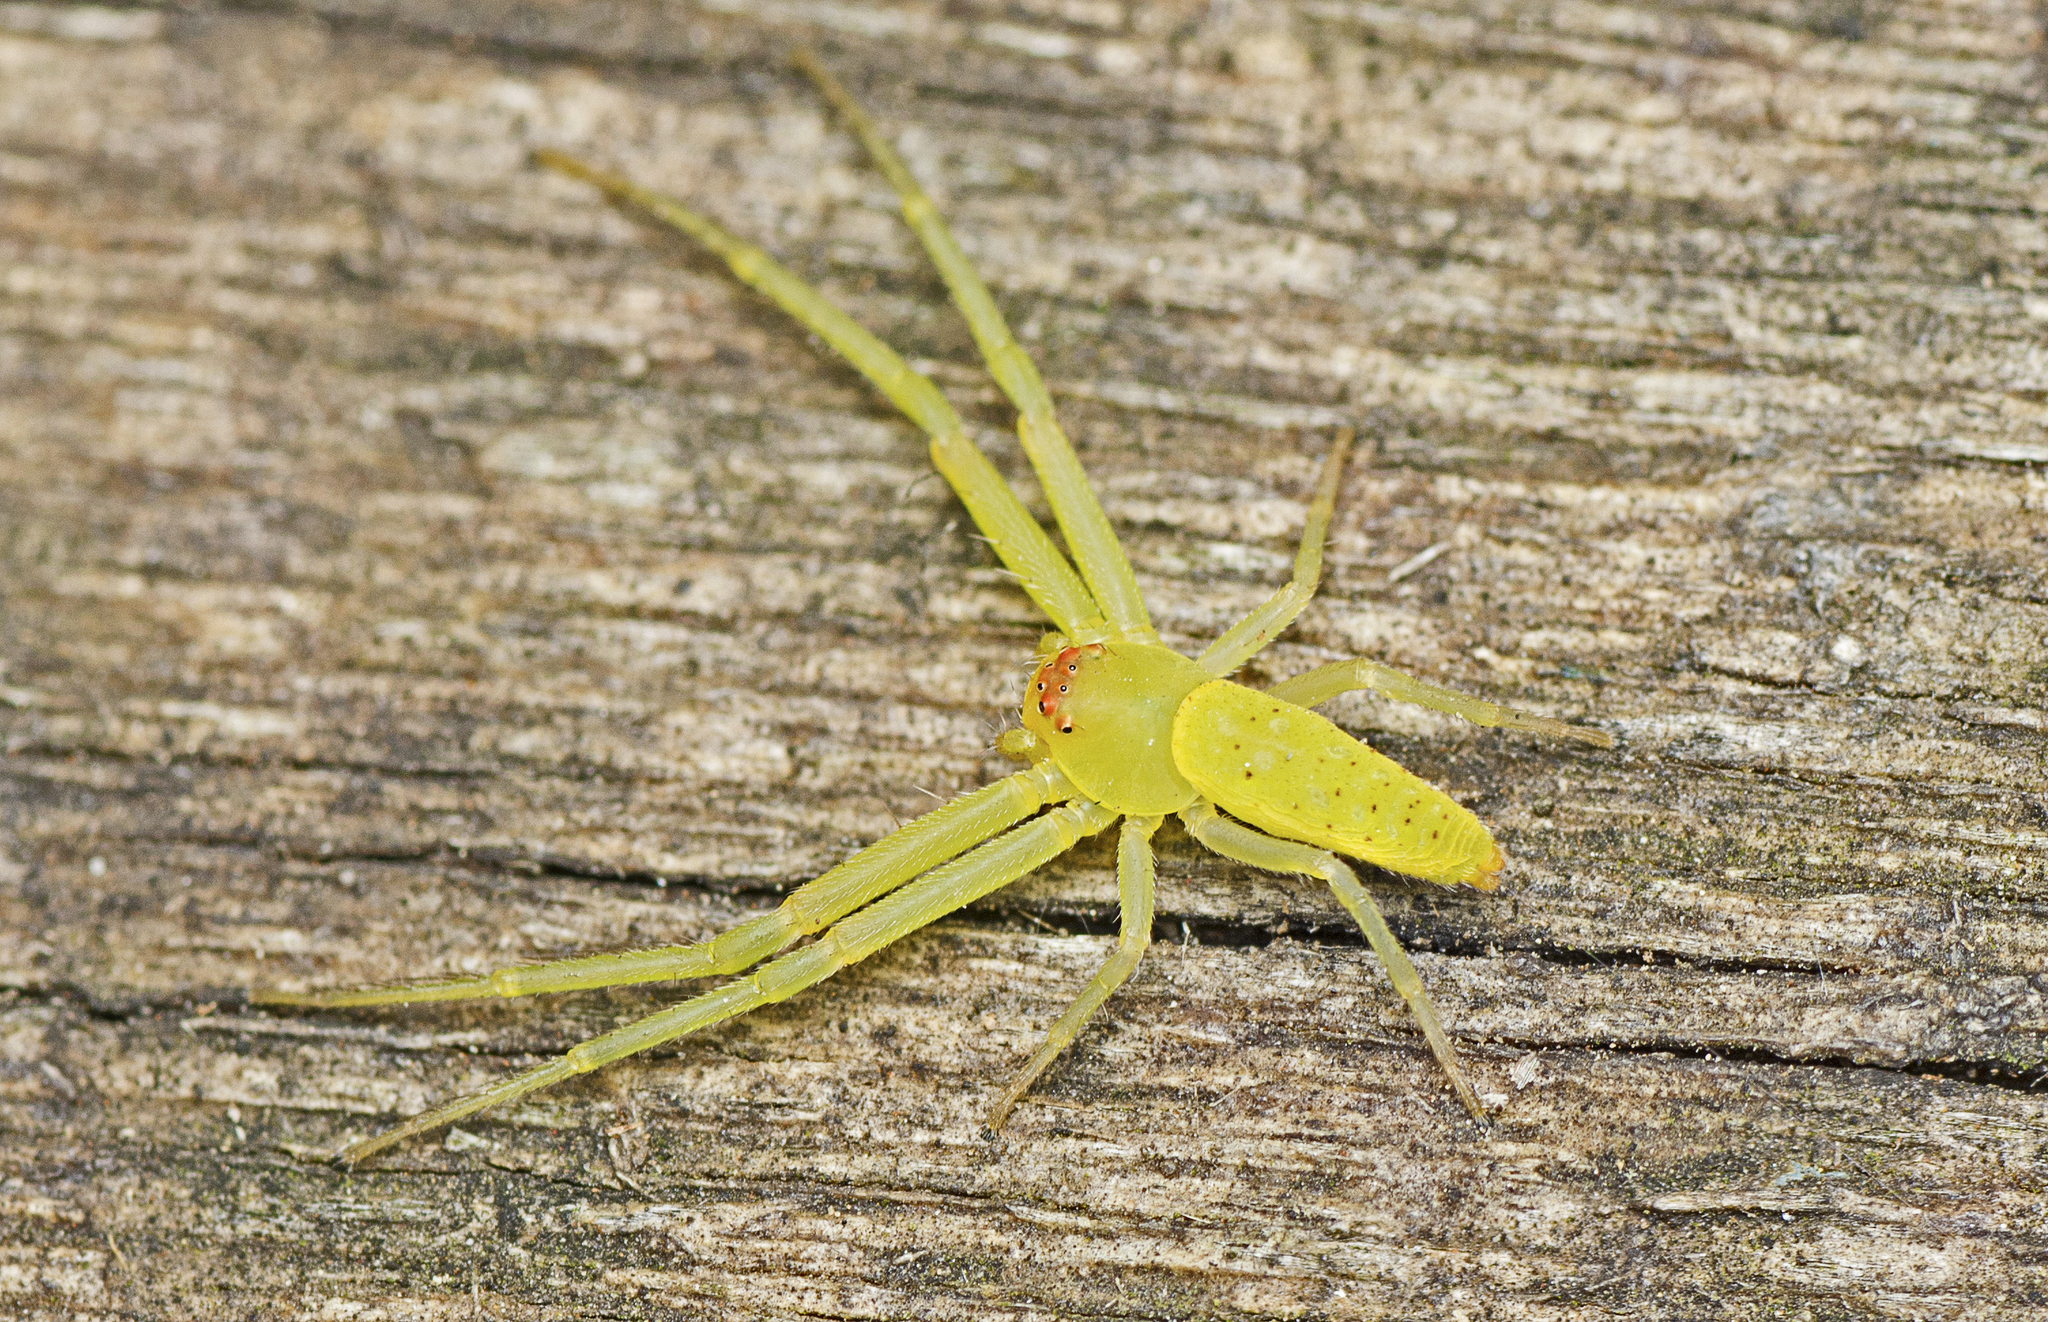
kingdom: Animalia
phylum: Arthropoda
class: Arachnida
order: Araneae
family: Thomisidae
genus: Cetratus
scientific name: Cetratus rubropunctatus
